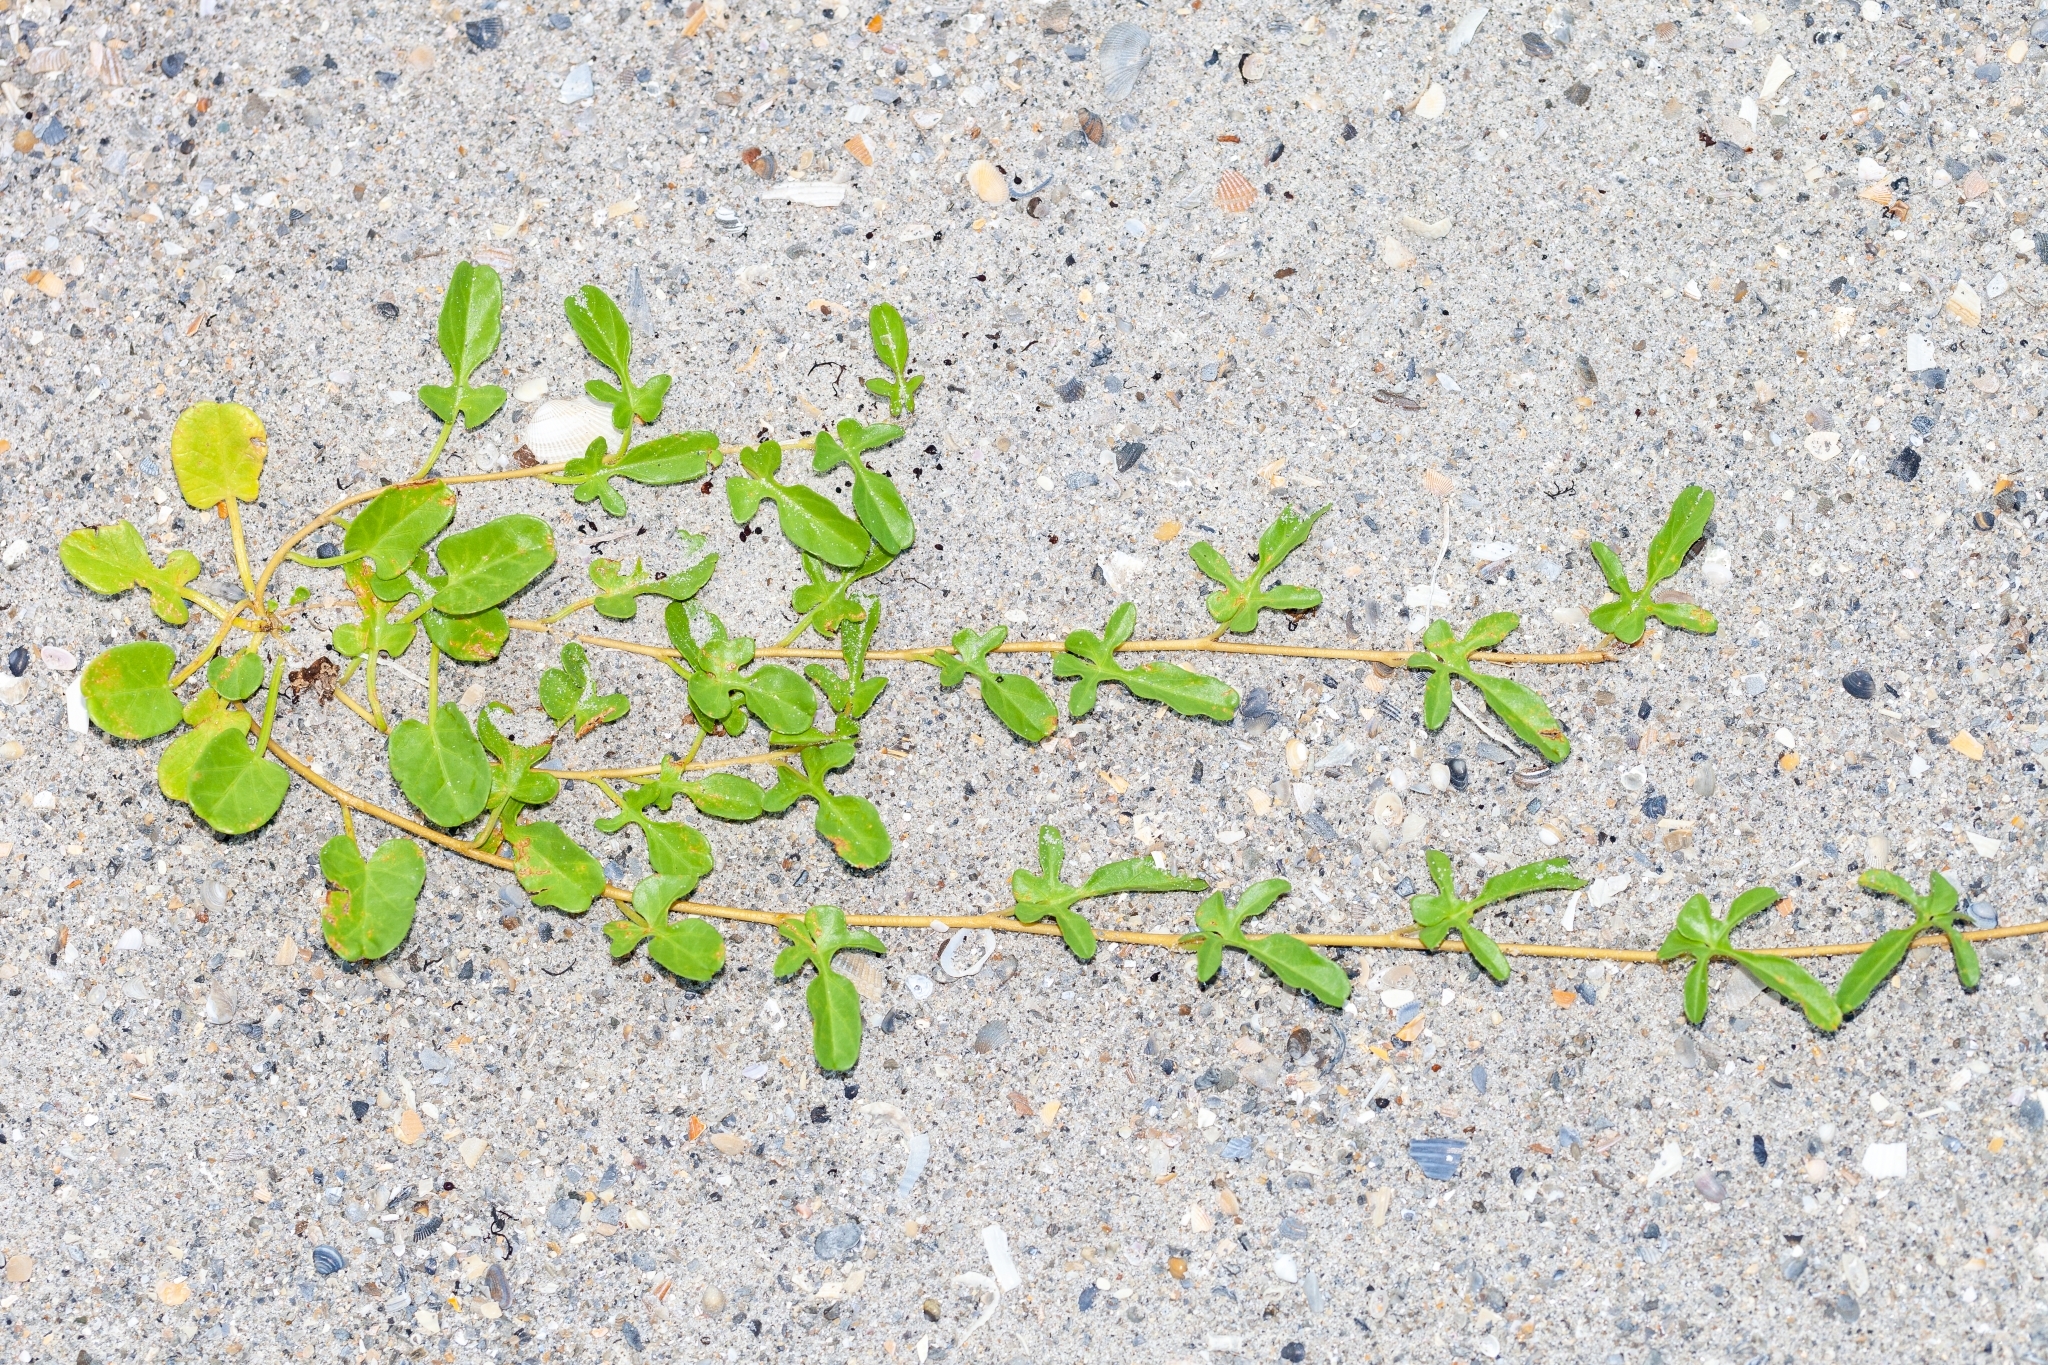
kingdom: Plantae
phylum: Tracheophyta
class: Magnoliopsida
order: Solanales
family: Convolvulaceae
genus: Ipomoea
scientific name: Ipomoea imperati
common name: Fiddle-leaf morning-glory
